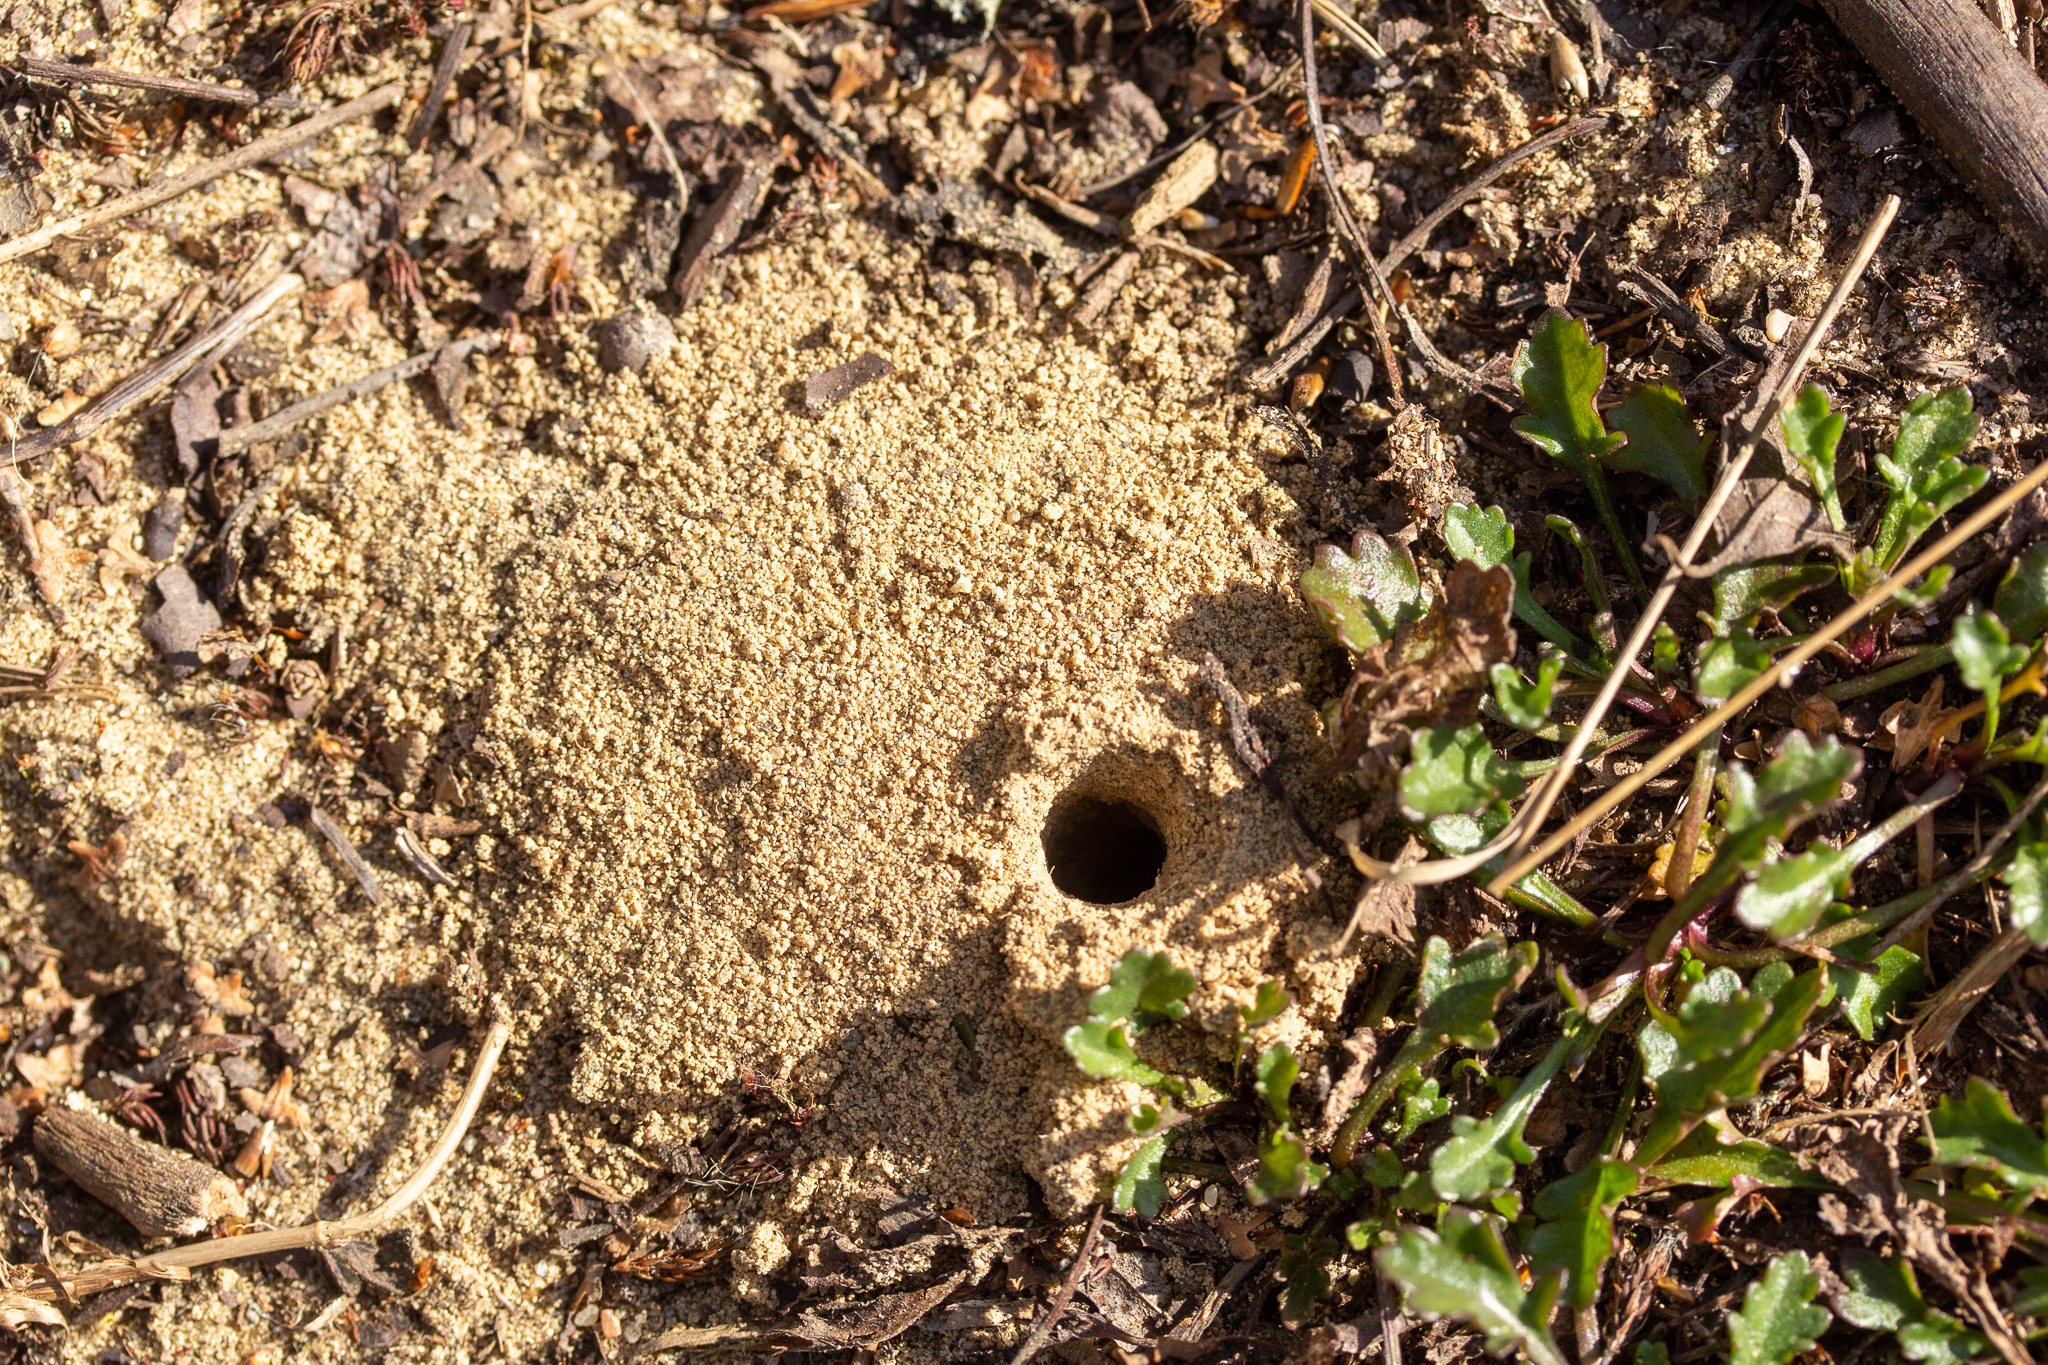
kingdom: Animalia
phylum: Arthropoda
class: Insecta
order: Hymenoptera
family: Colletidae
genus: Colletes
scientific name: Colletes inaequalis
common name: Unequal cellophane bee
